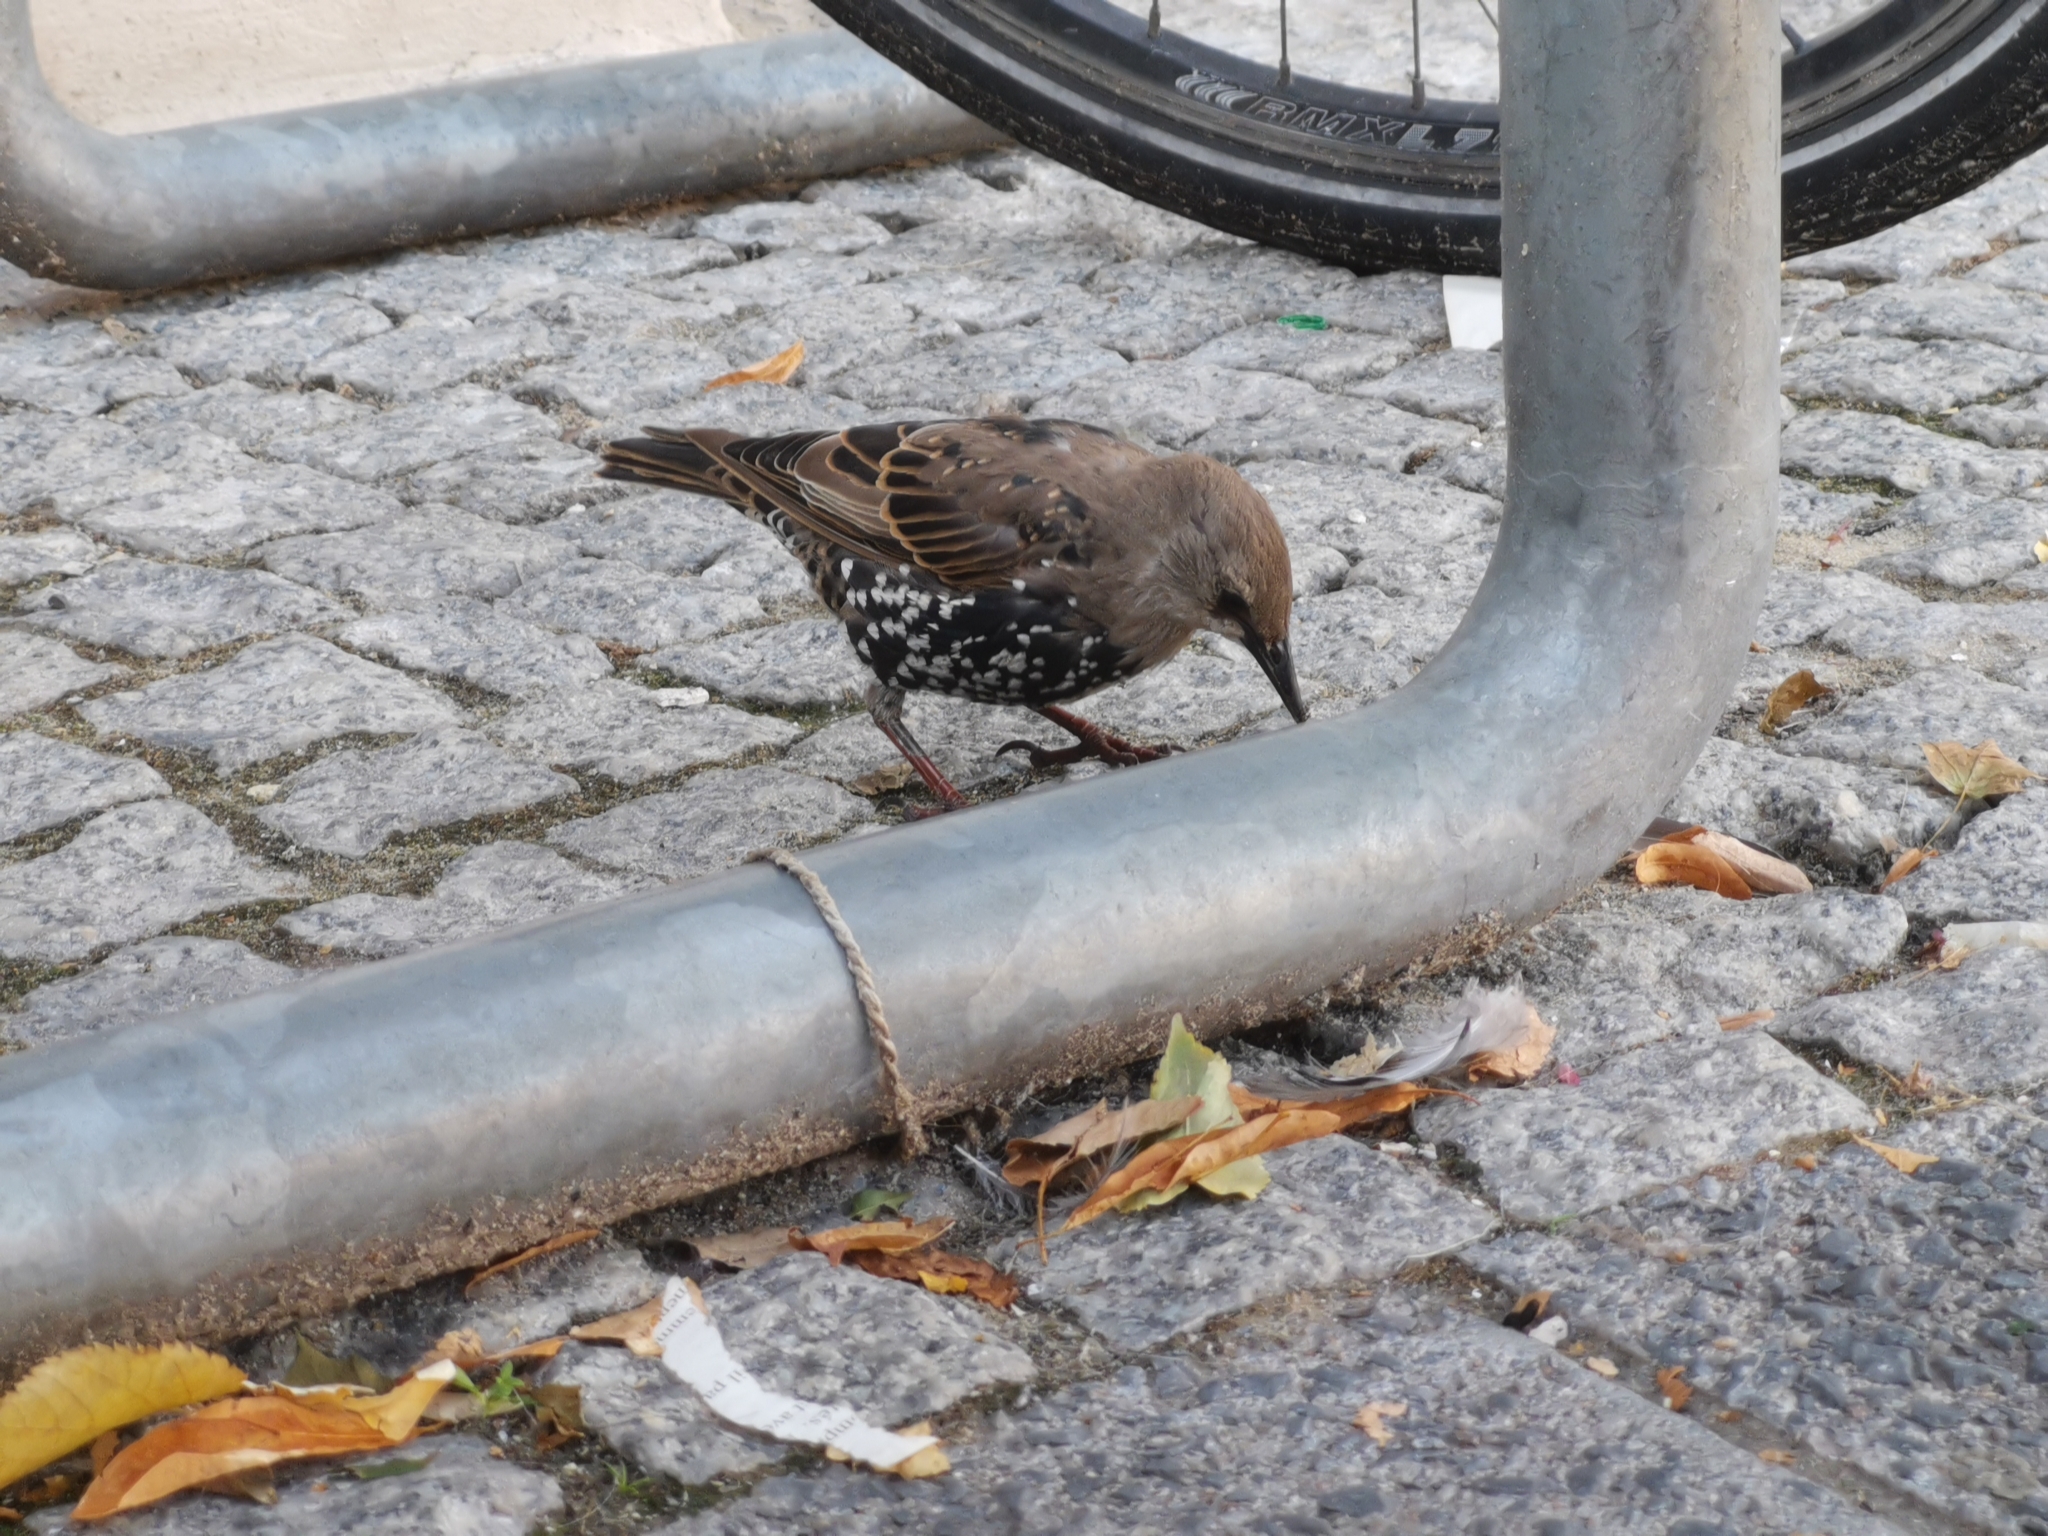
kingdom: Animalia
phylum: Chordata
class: Aves
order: Passeriformes
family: Sturnidae
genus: Sturnus
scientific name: Sturnus vulgaris
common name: Common starling
